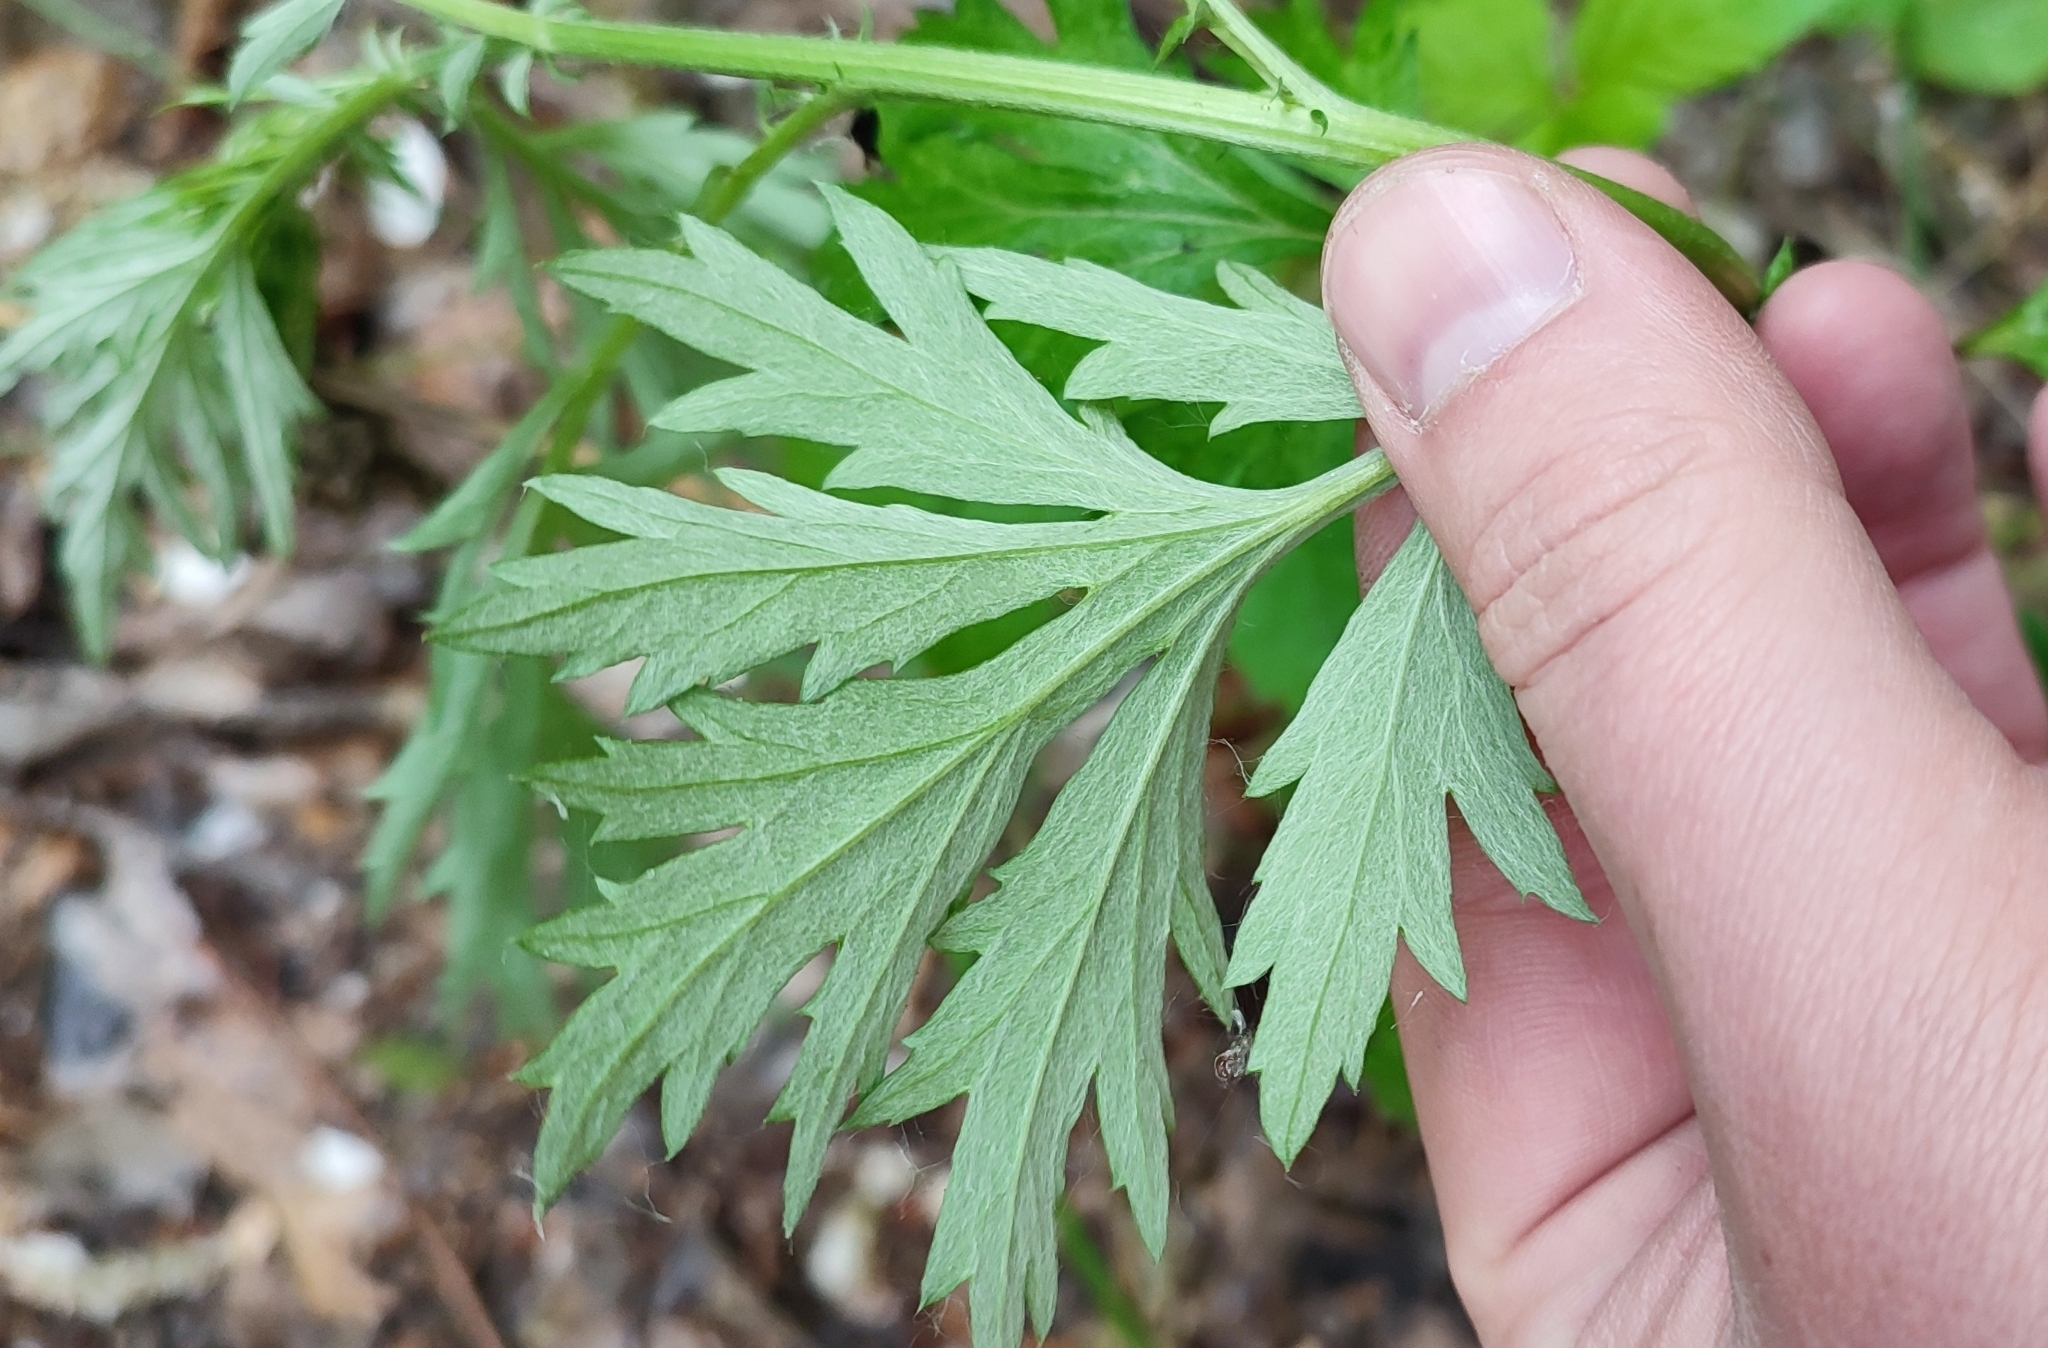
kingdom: Plantae
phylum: Tracheophyta
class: Magnoliopsida
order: Asterales
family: Asteraceae
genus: Artemisia
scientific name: Artemisia vulgaris
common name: Mugwort
